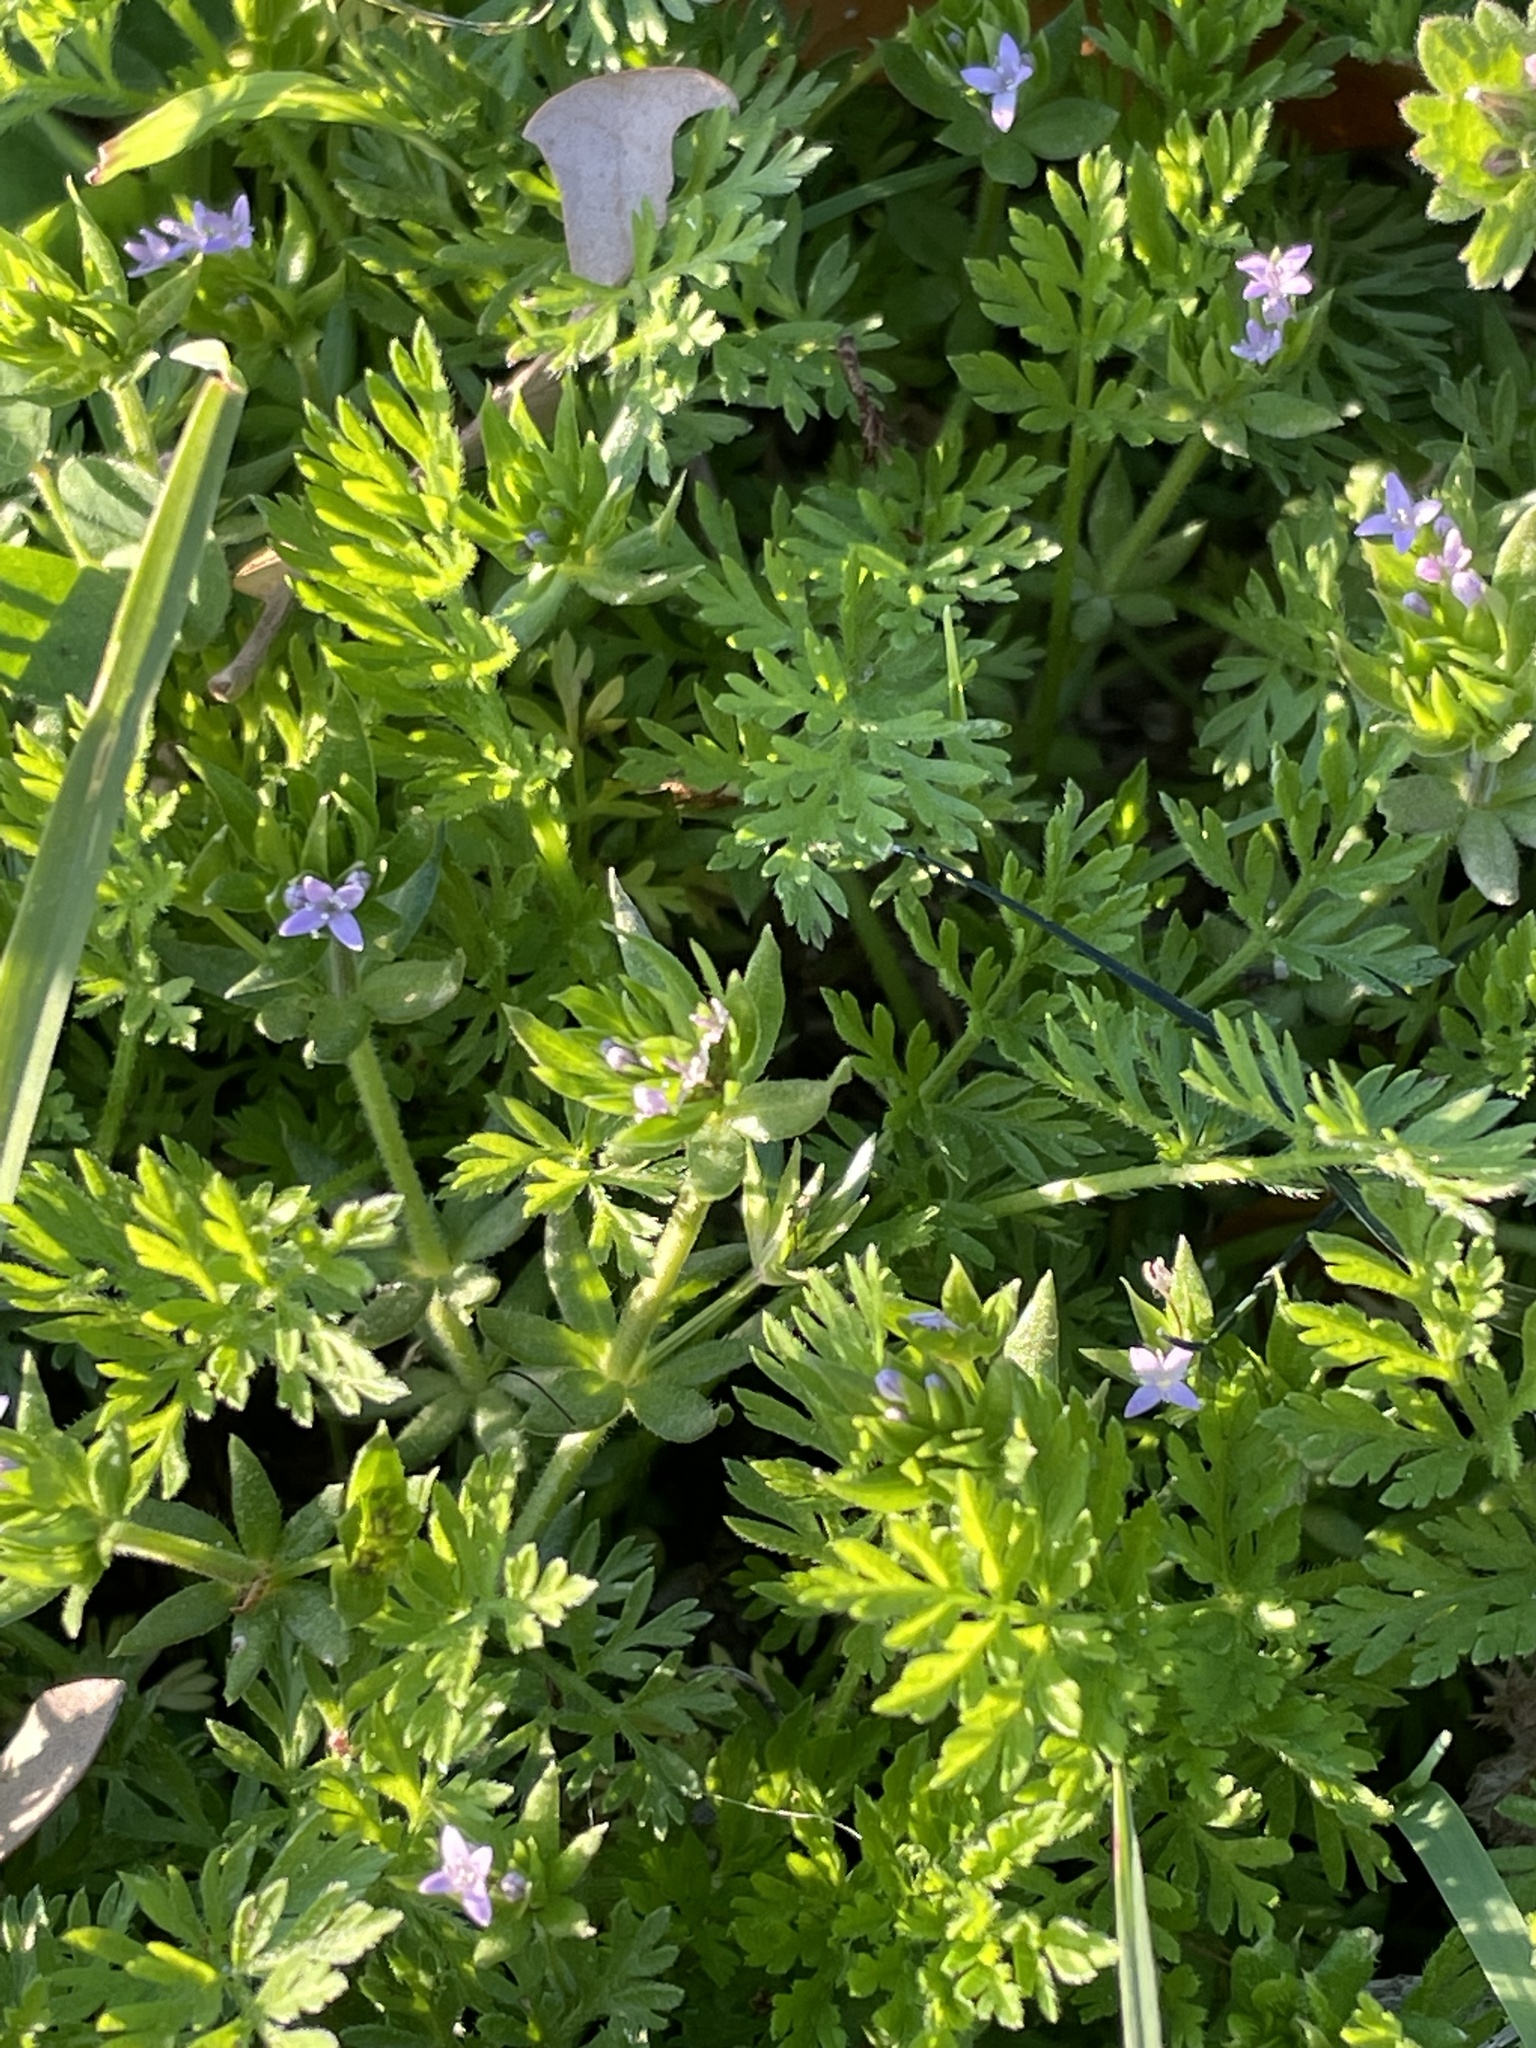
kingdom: Plantae
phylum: Tracheophyta
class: Magnoliopsida
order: Gentianales
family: Rubiaceae
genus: Sherardia
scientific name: Sherardia arvensis
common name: Field madder
